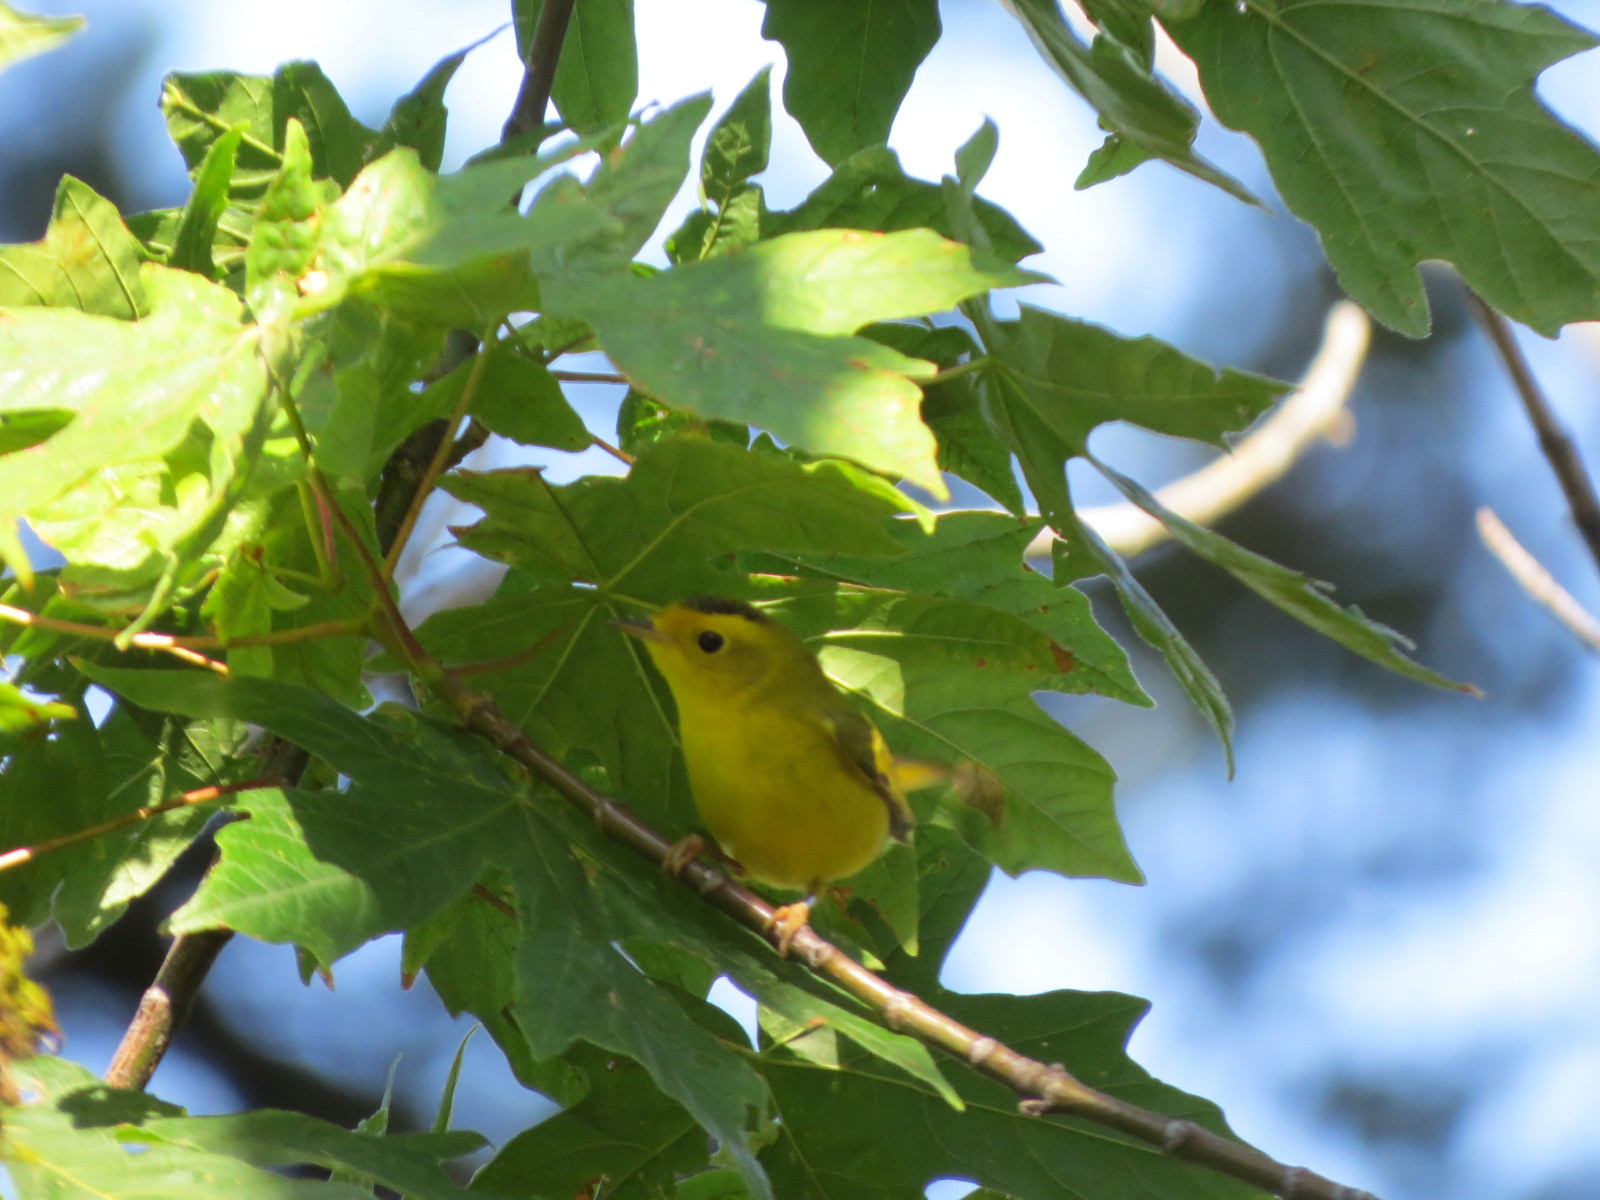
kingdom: Animalia
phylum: Chordata
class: Aves
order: Passeriformes
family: Parulidae
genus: Cardellina
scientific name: Cardellina pusilla
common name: Wilson's warbler
